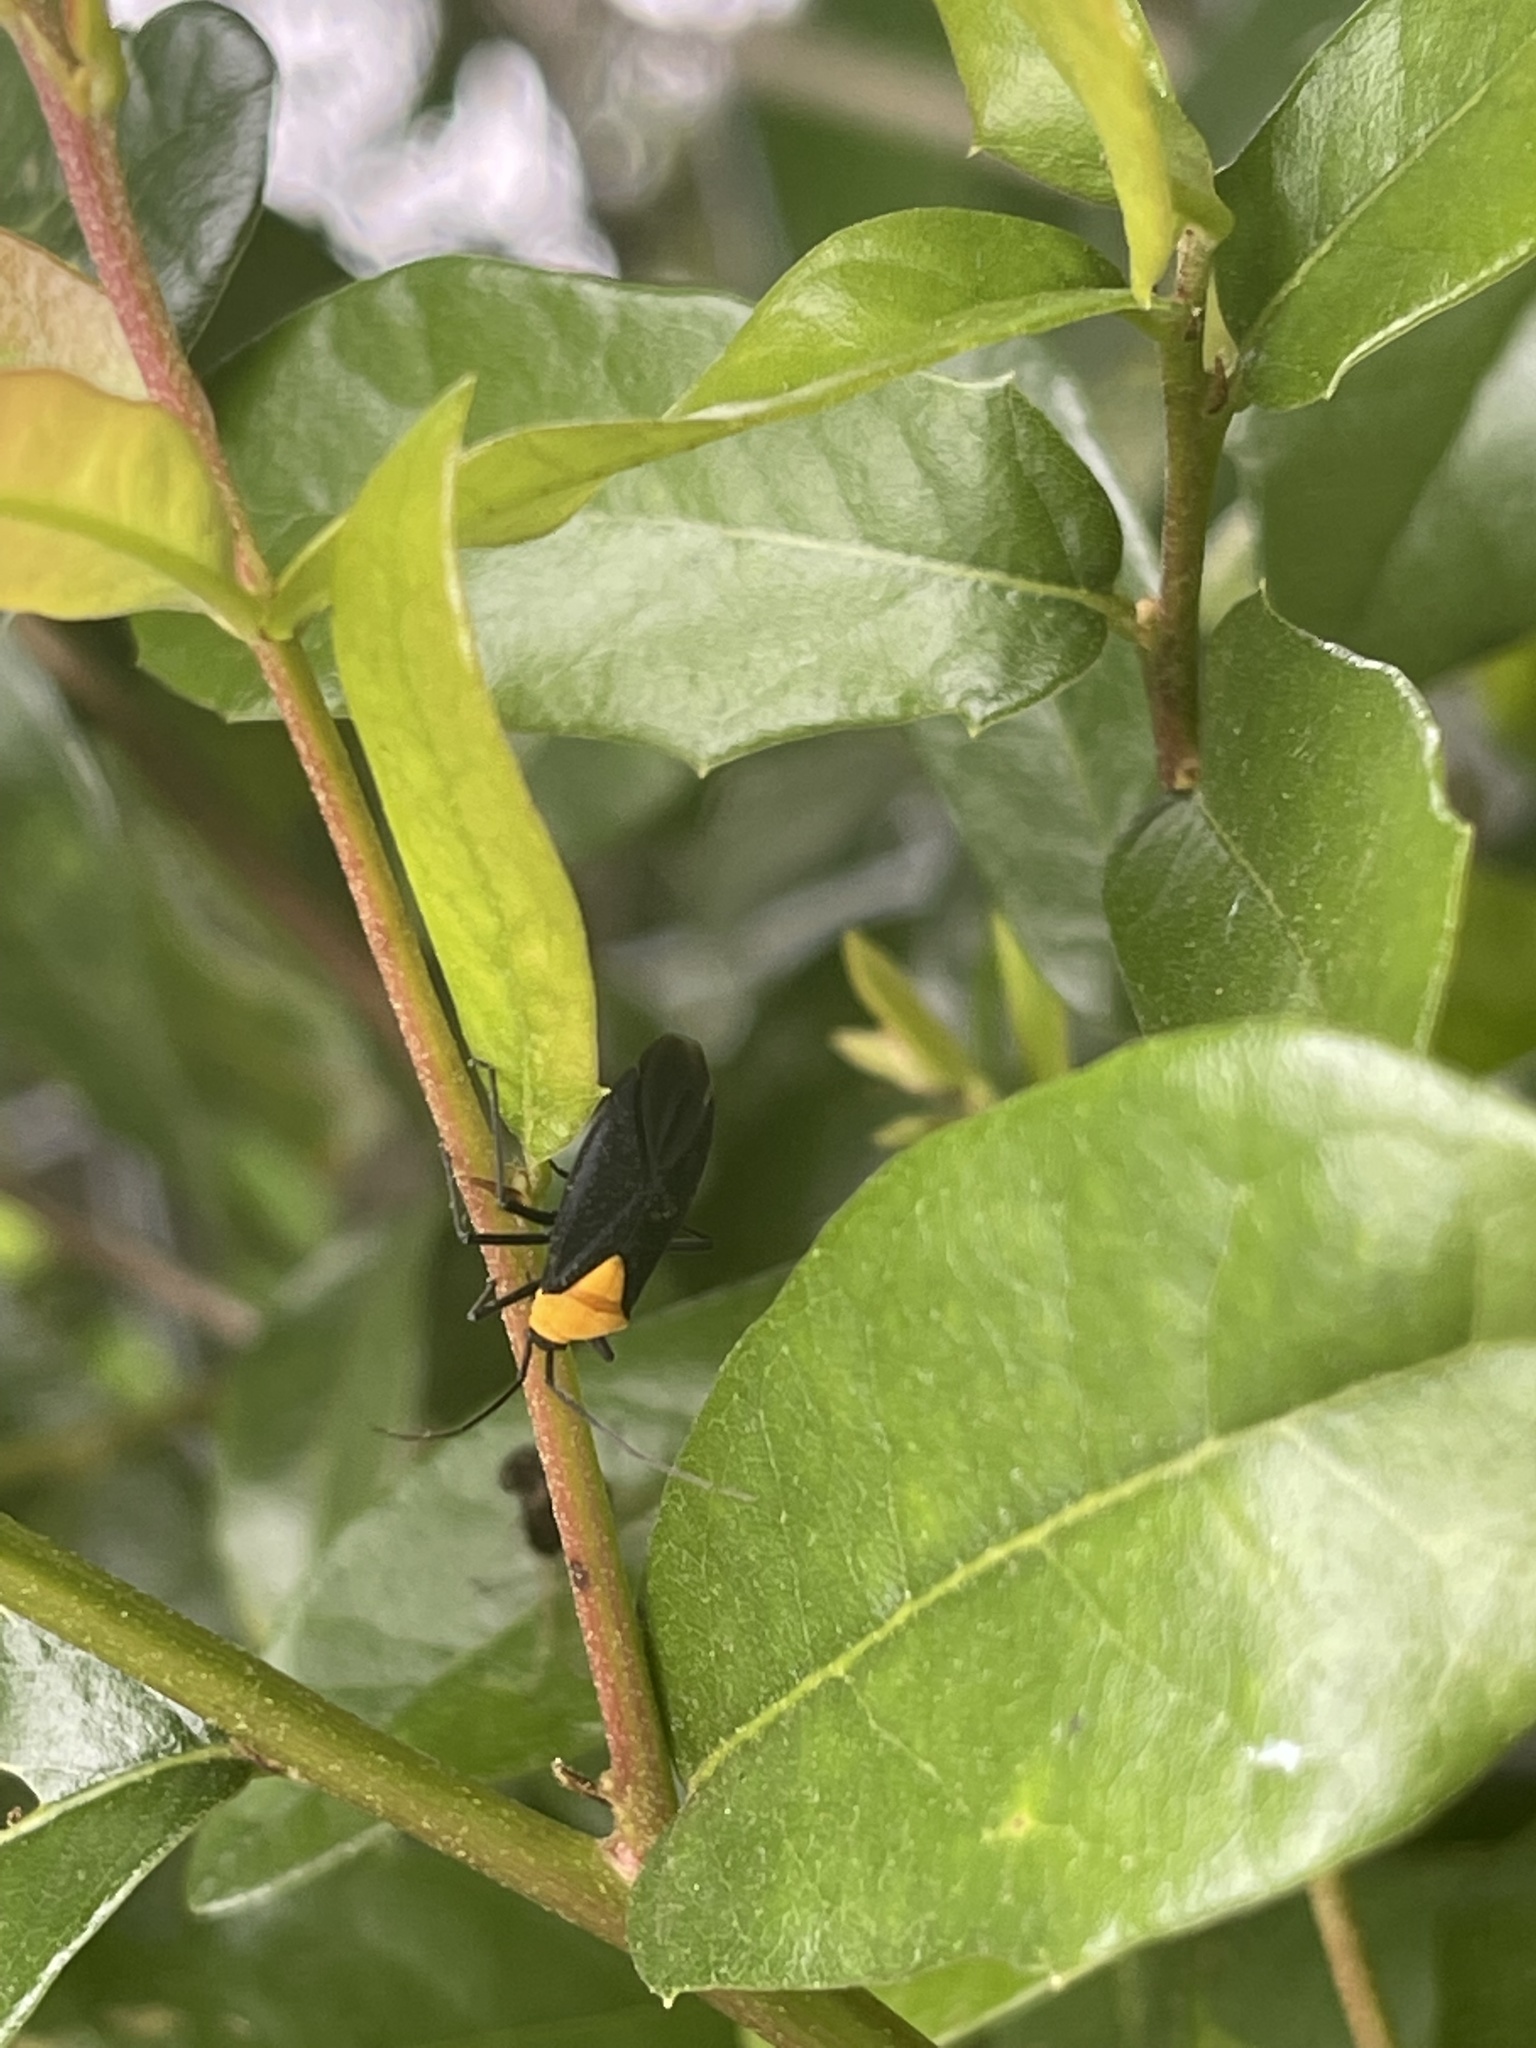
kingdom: Animalia
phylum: Arthropoda
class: Insecta
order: Hemiptera
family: Miridae
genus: Prepops
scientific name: Prepops insitivus
